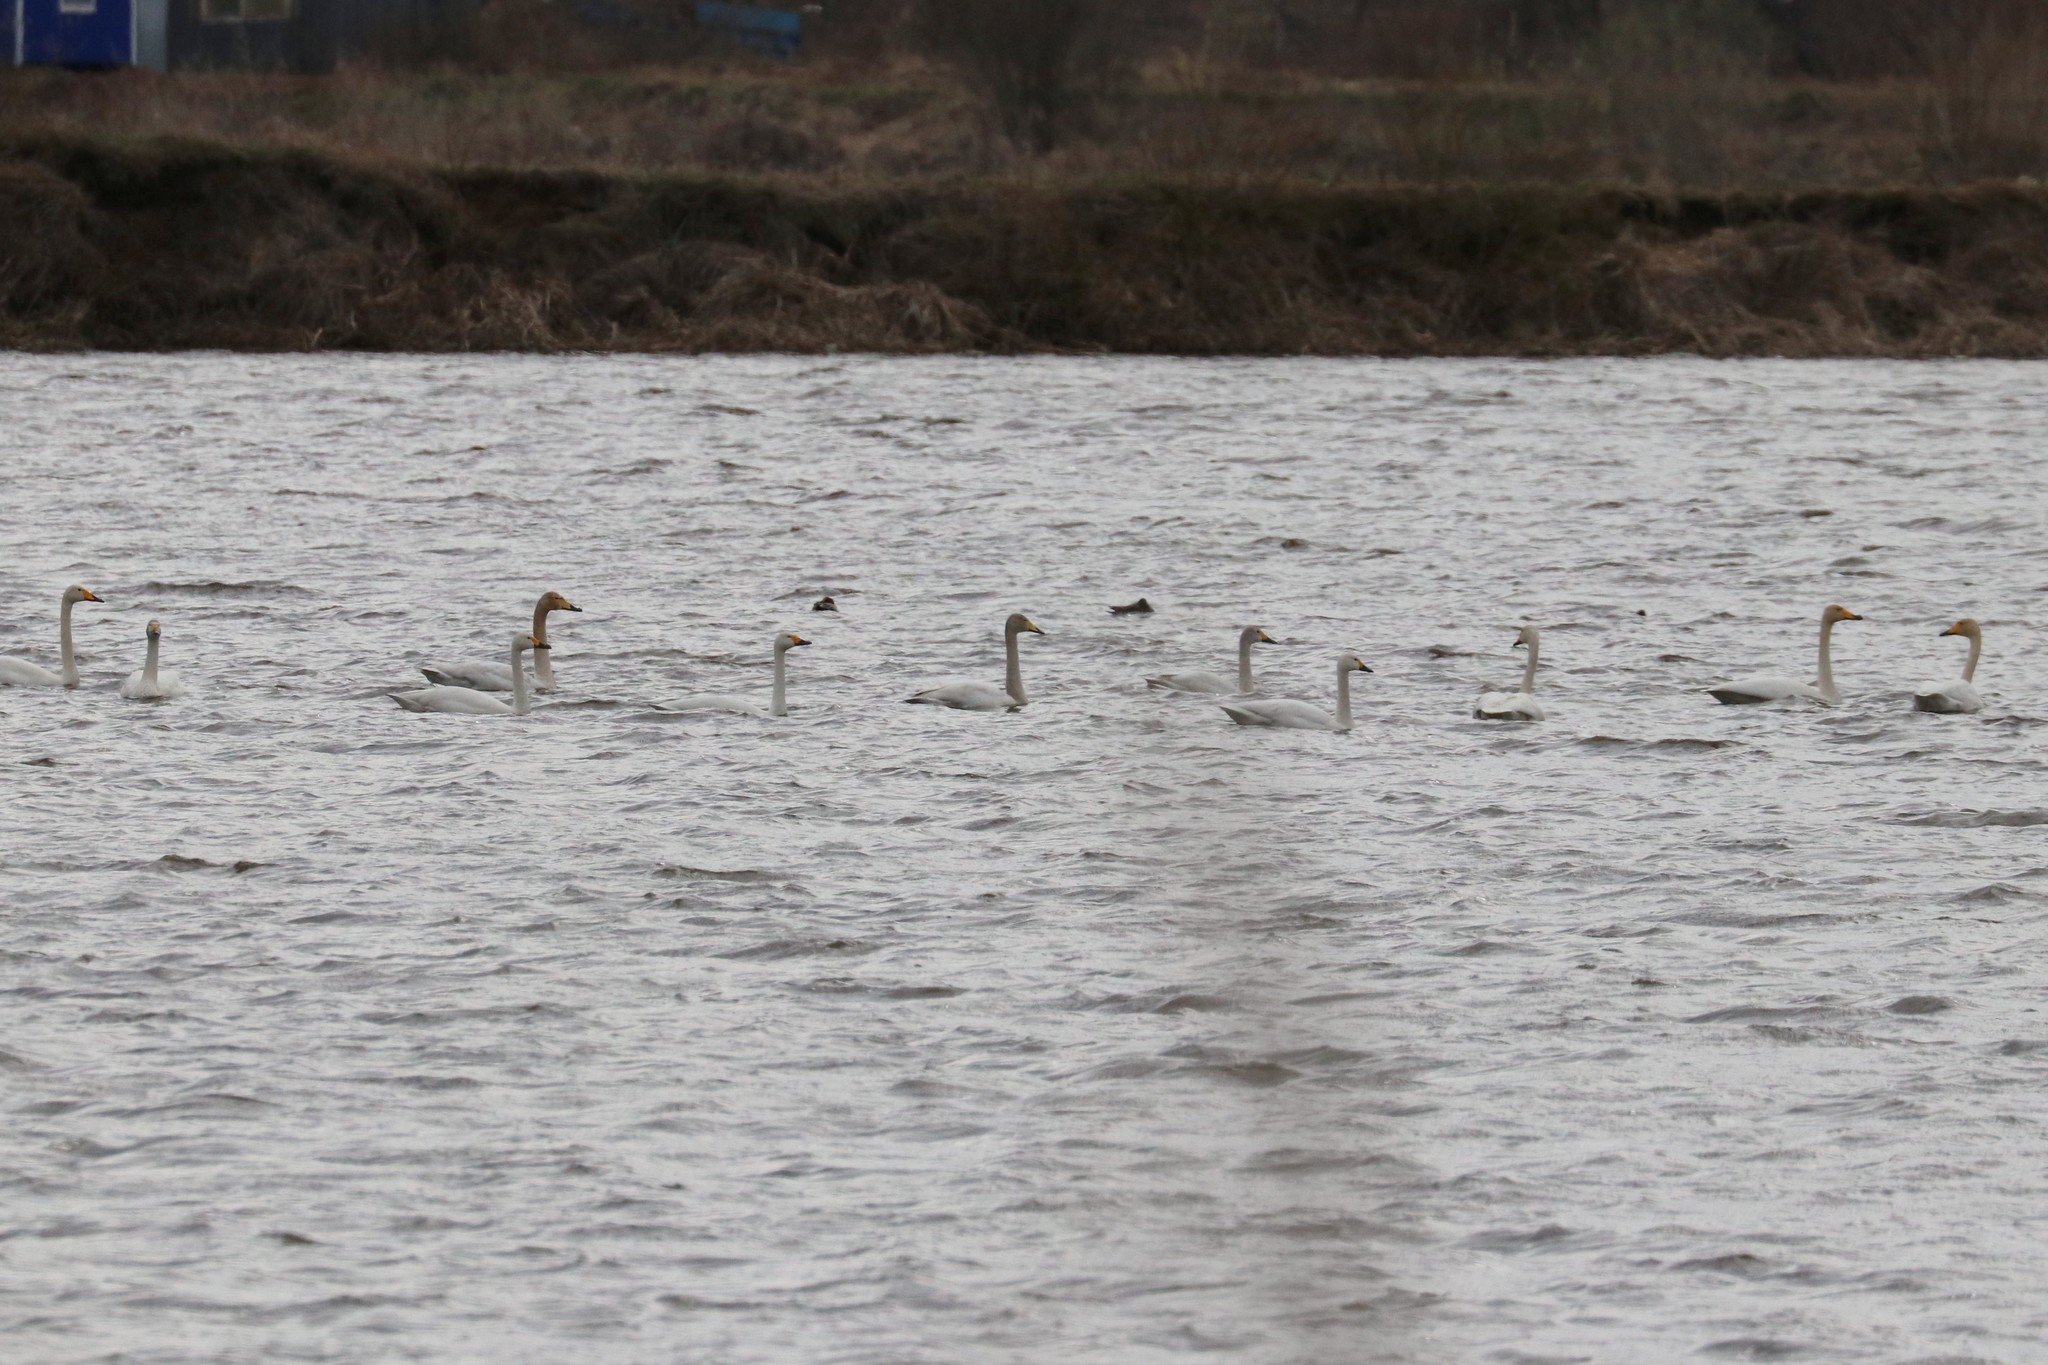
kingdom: Animalia
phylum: Chordata
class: Aves
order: Anseriformes
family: Anatidae
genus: Cygnus
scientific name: Cygnus cygnus
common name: Whooper swan
